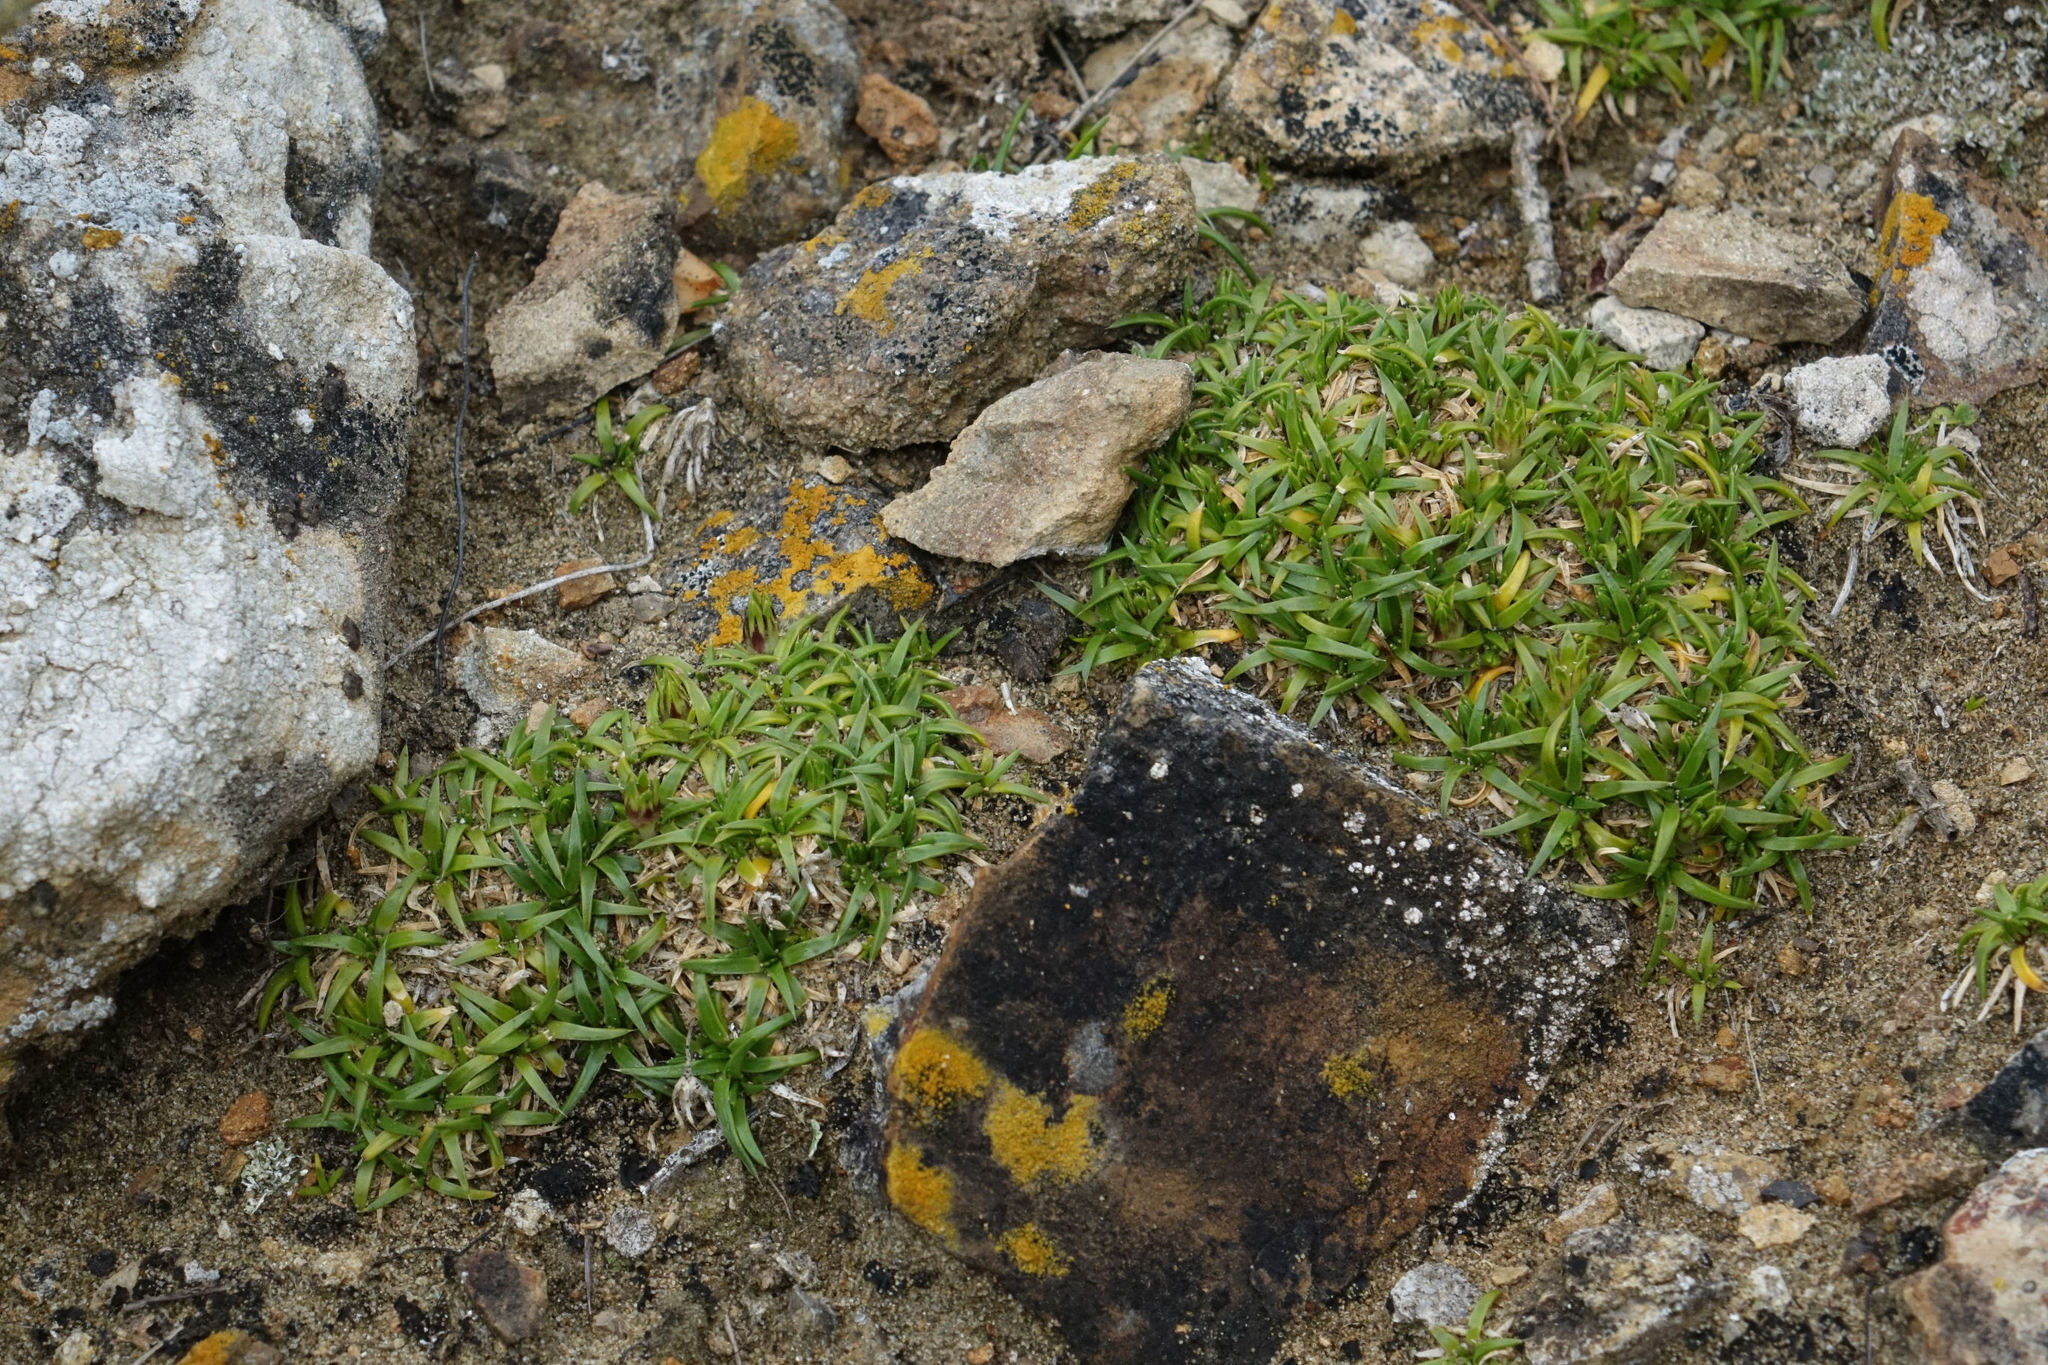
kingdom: Plantae
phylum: Tracheophyta
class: Magnoliopsida
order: Caryophyllales
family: Caryophyllaceae
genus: Colobanthus
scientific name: Colobanthus muelleri
